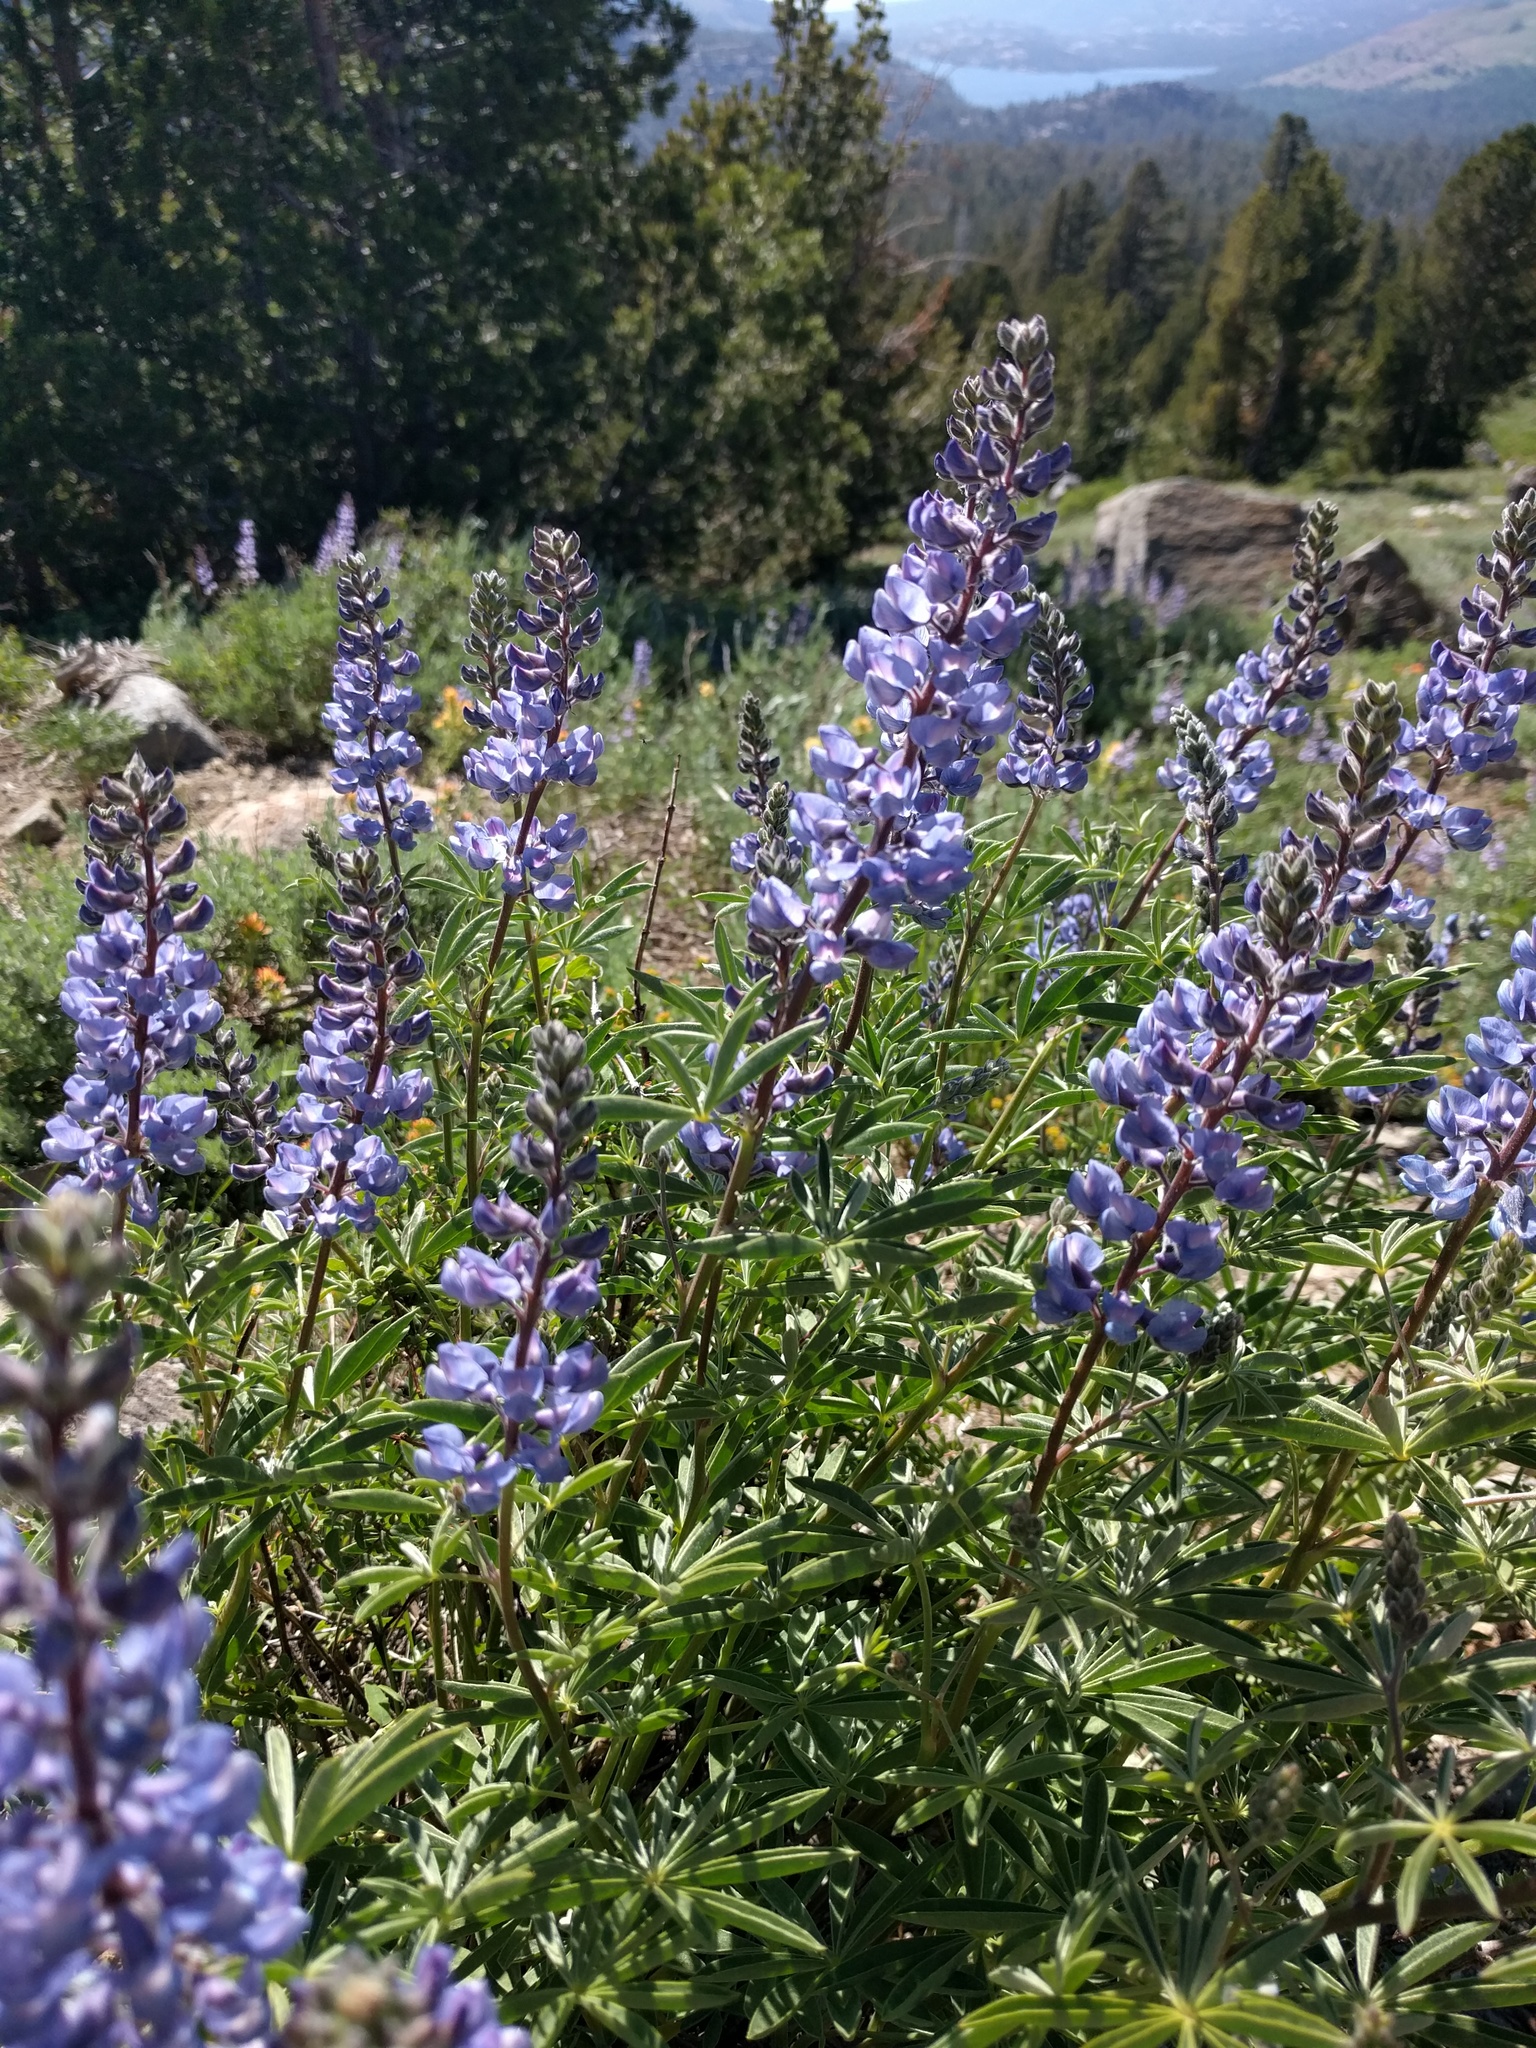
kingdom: Plantae
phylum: Tracheophyta
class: Magnoliopsida
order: Fabales
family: Fabaceae
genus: Lupinus
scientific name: Lupinus argenteus
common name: Silvery lupine
